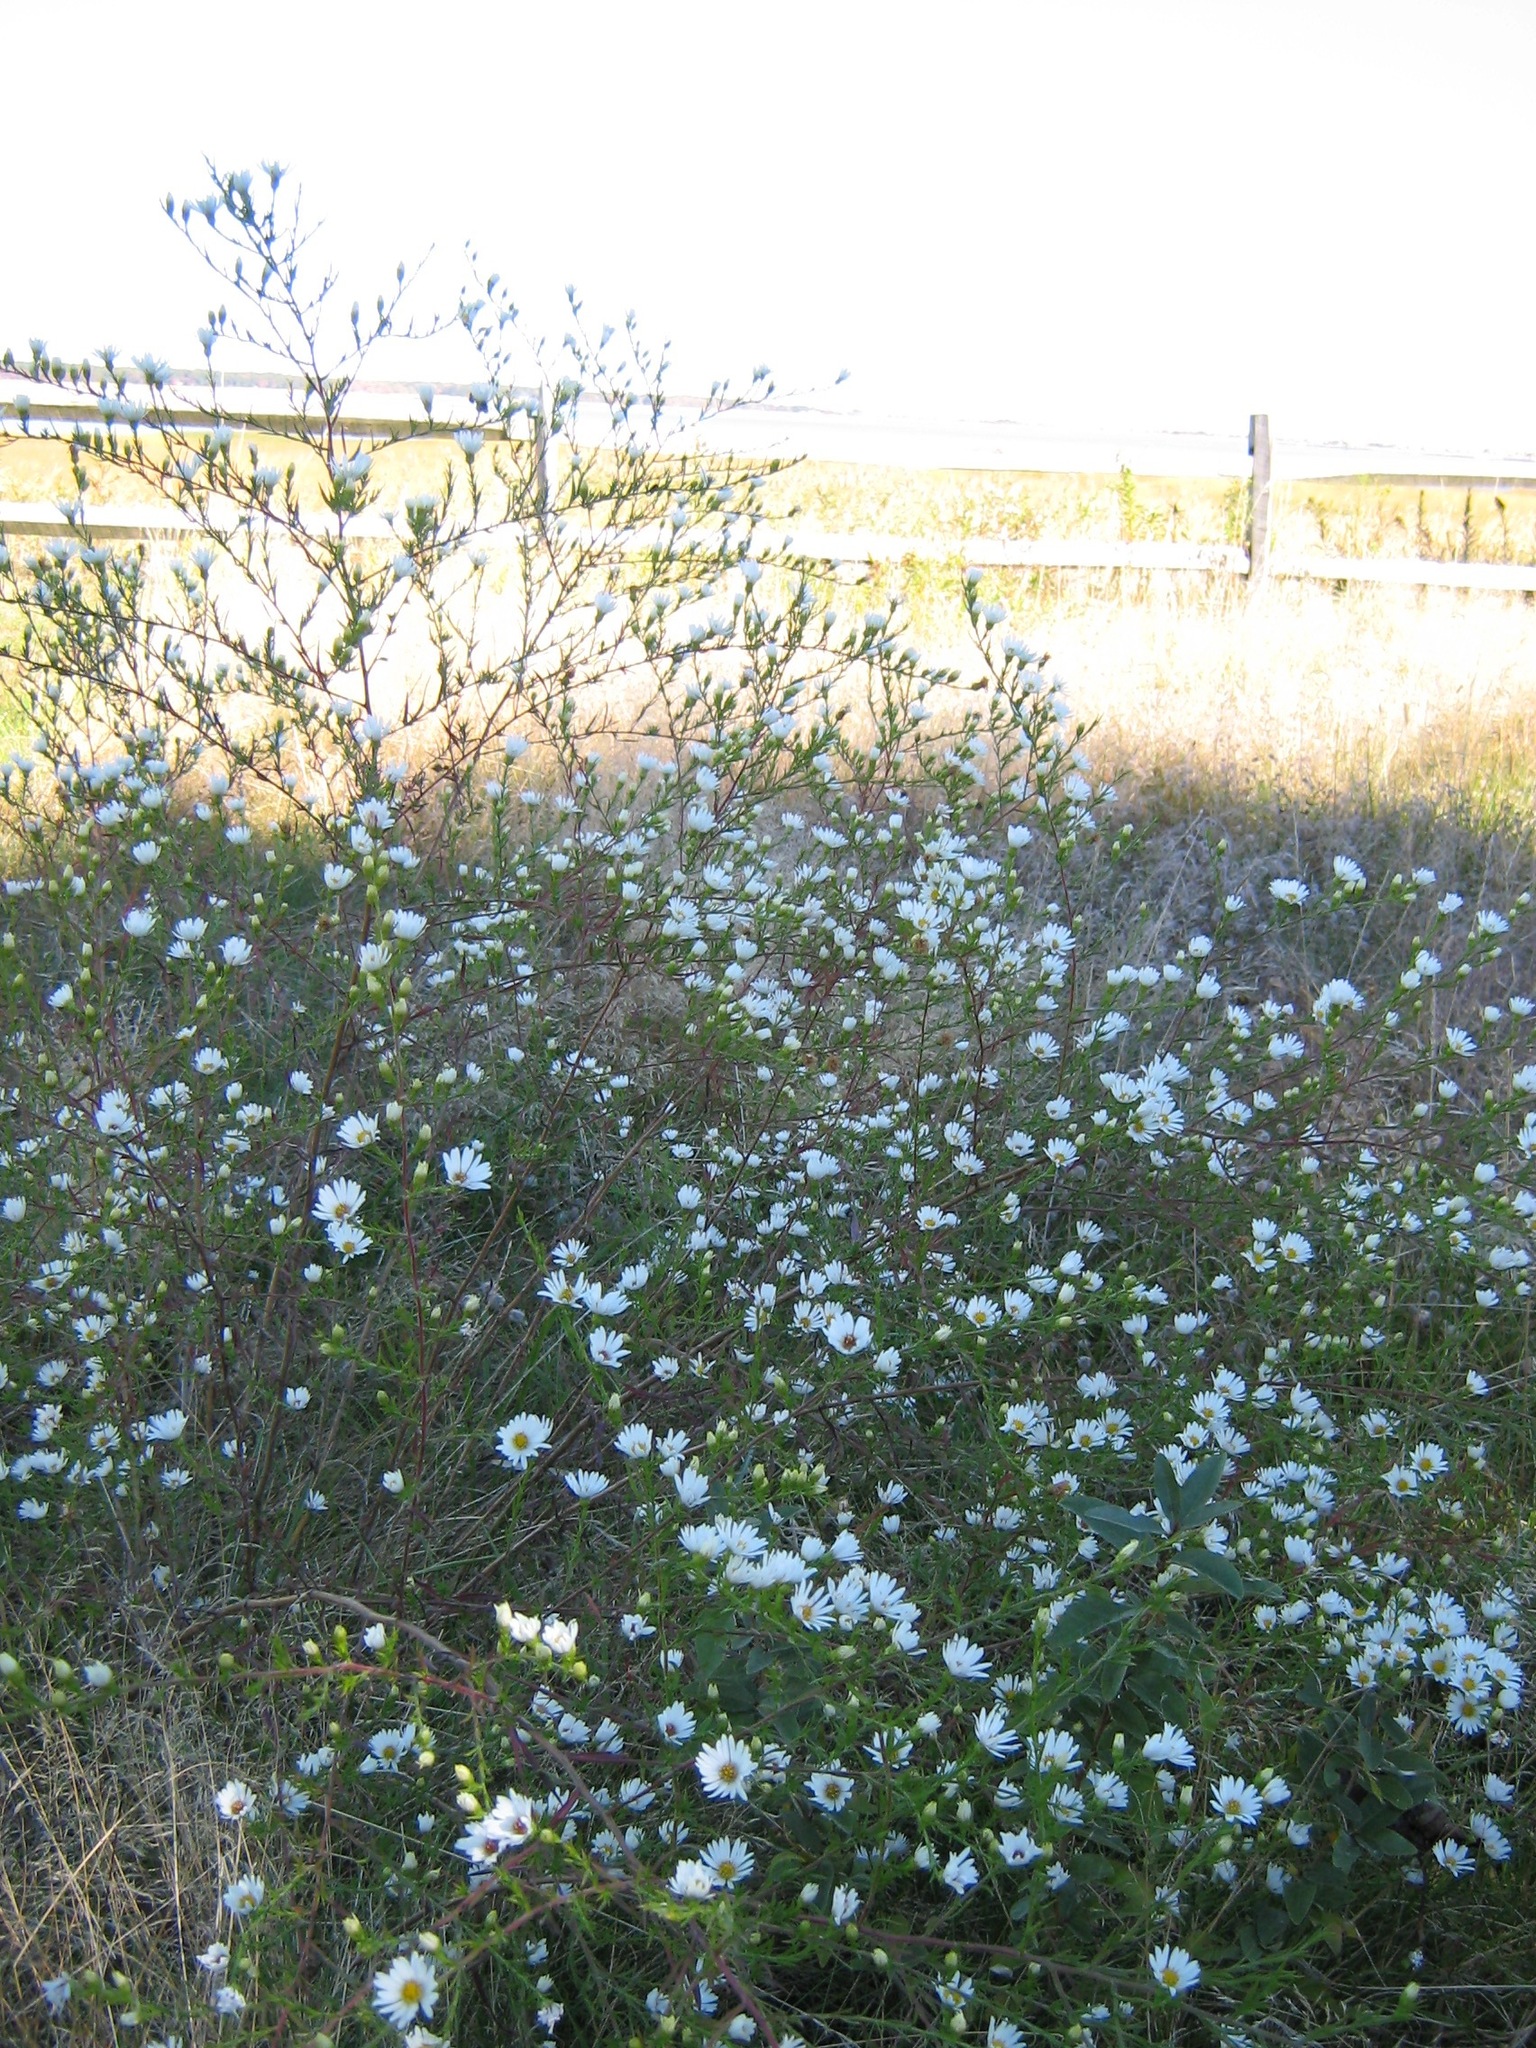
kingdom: Plantae
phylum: Tracheophyta
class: Magnoliopsida
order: Asterales
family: Asteraceae
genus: Symphyotrichum
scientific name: Symphyotrichum pilosum
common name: Awl aster
